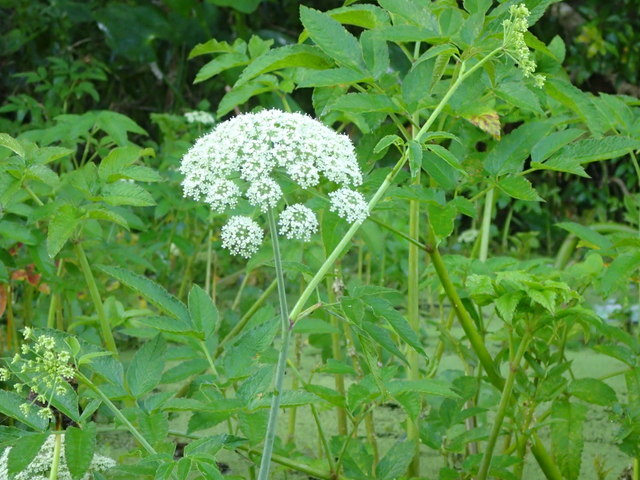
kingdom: Plantae
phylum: Tracheophyta
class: Magnoliopsida
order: Apiales
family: Apiaceae
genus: Cicuta
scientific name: Cicuta maculata
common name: Spotted cowbane
